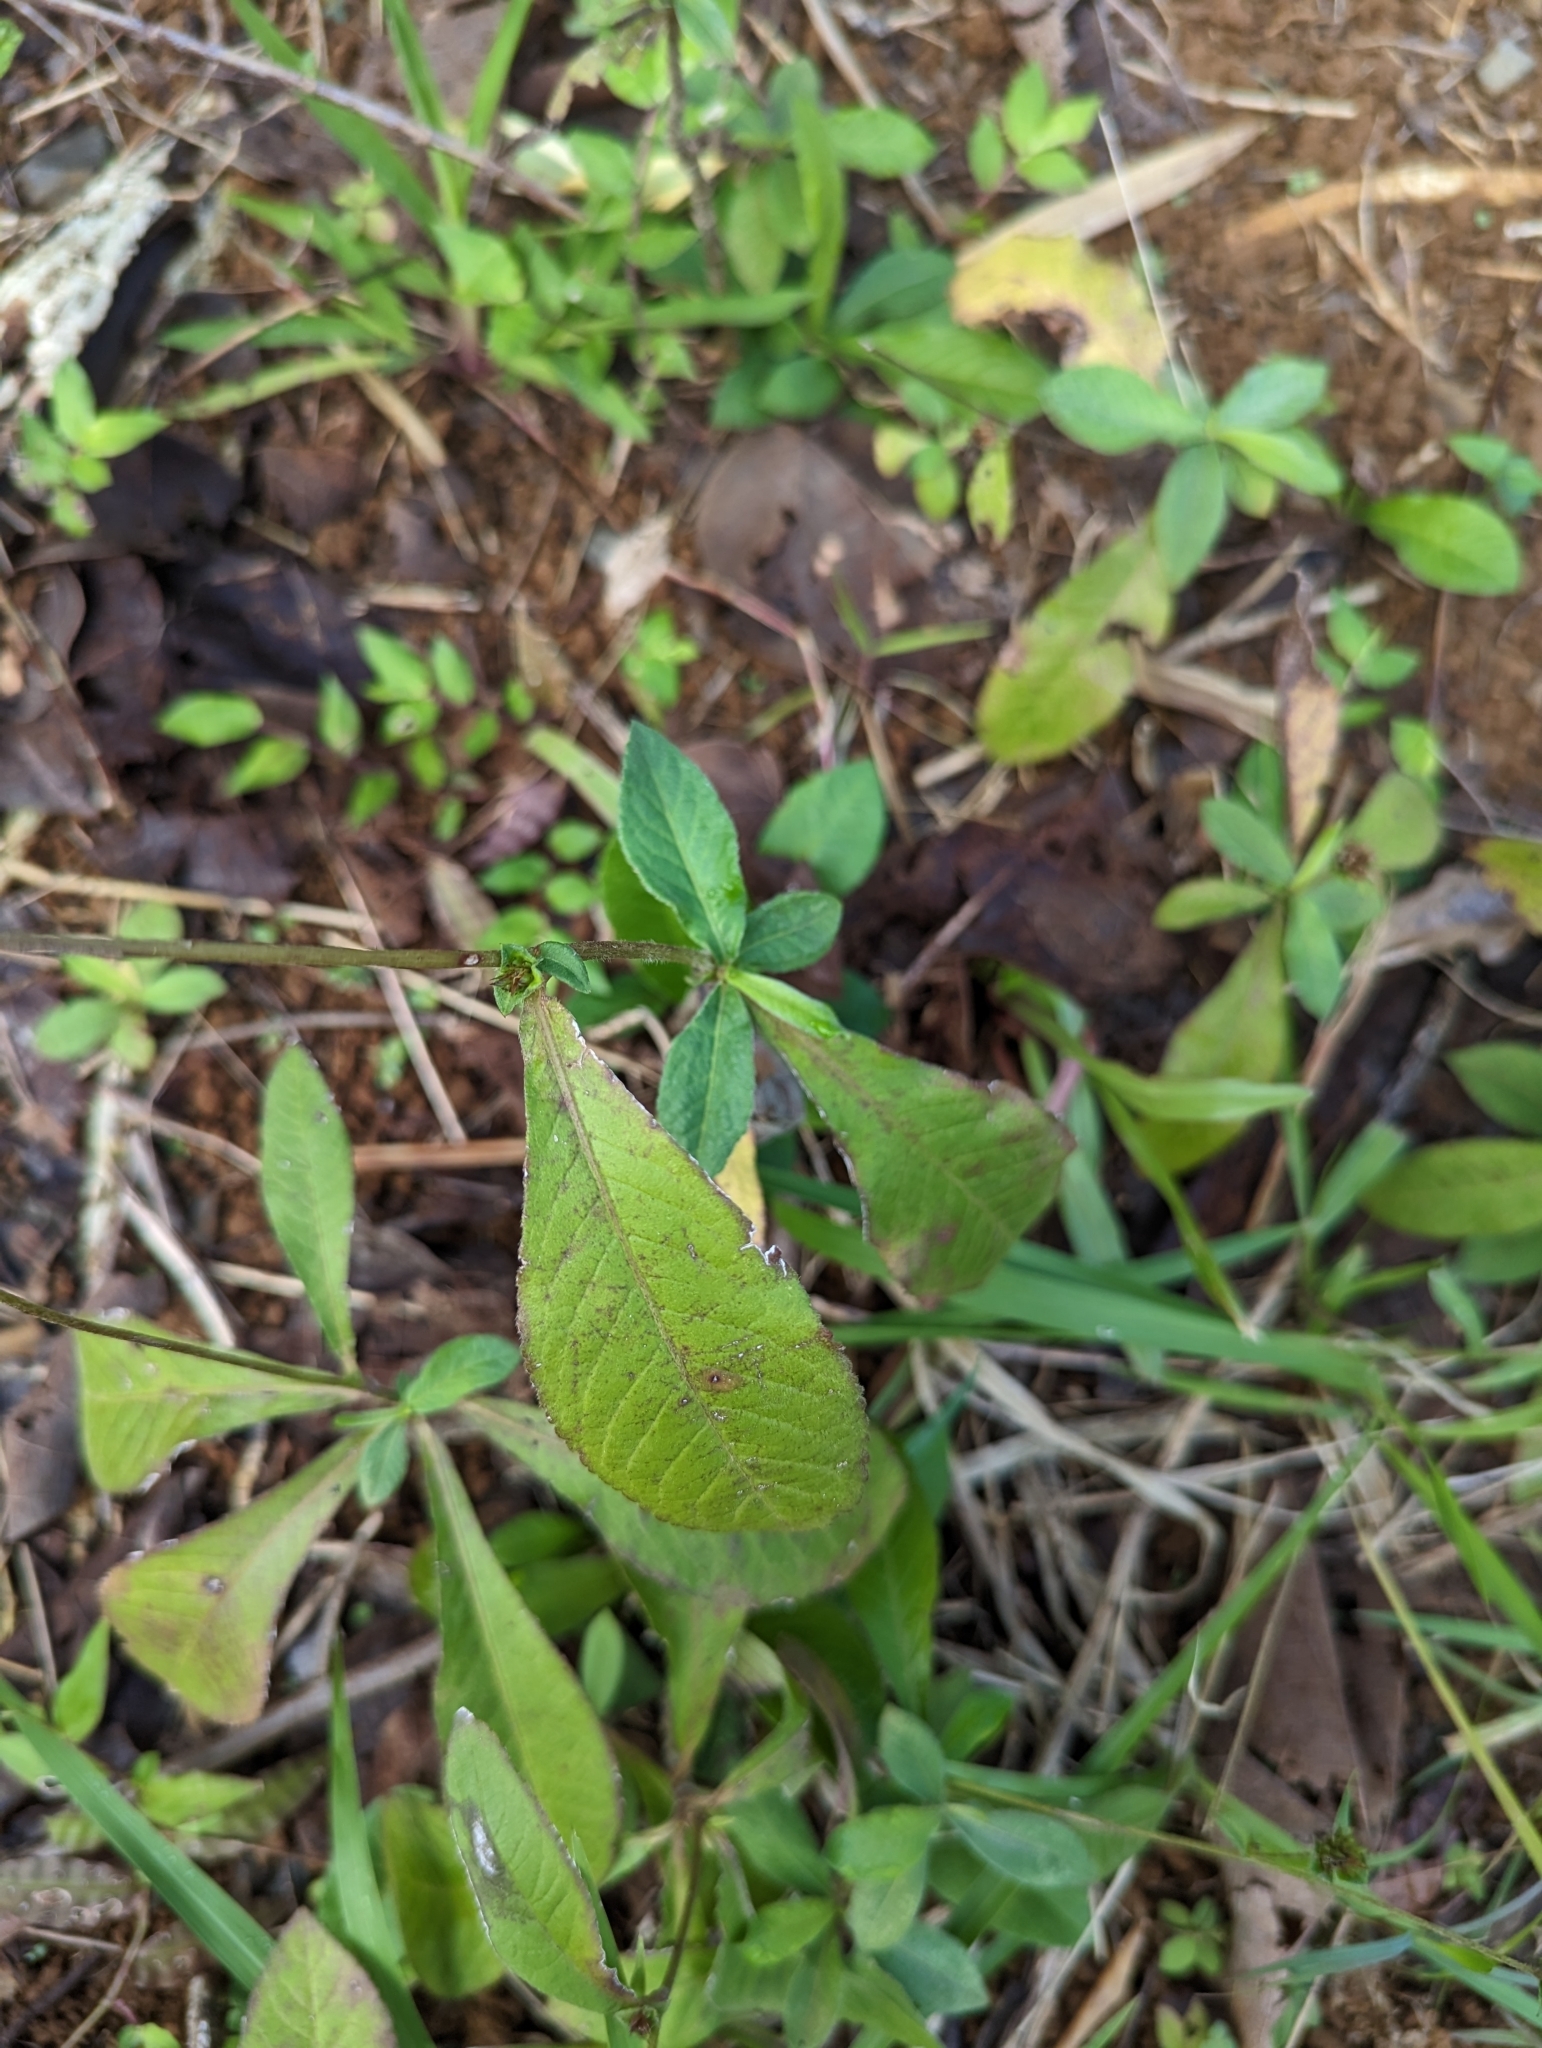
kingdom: Plantae
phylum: Tracheophyta
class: Magnoliopsida
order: Asterales
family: Asteraceae
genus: Elephantopus
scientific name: Elephantopus mollis
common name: Soft elephantsfoot
